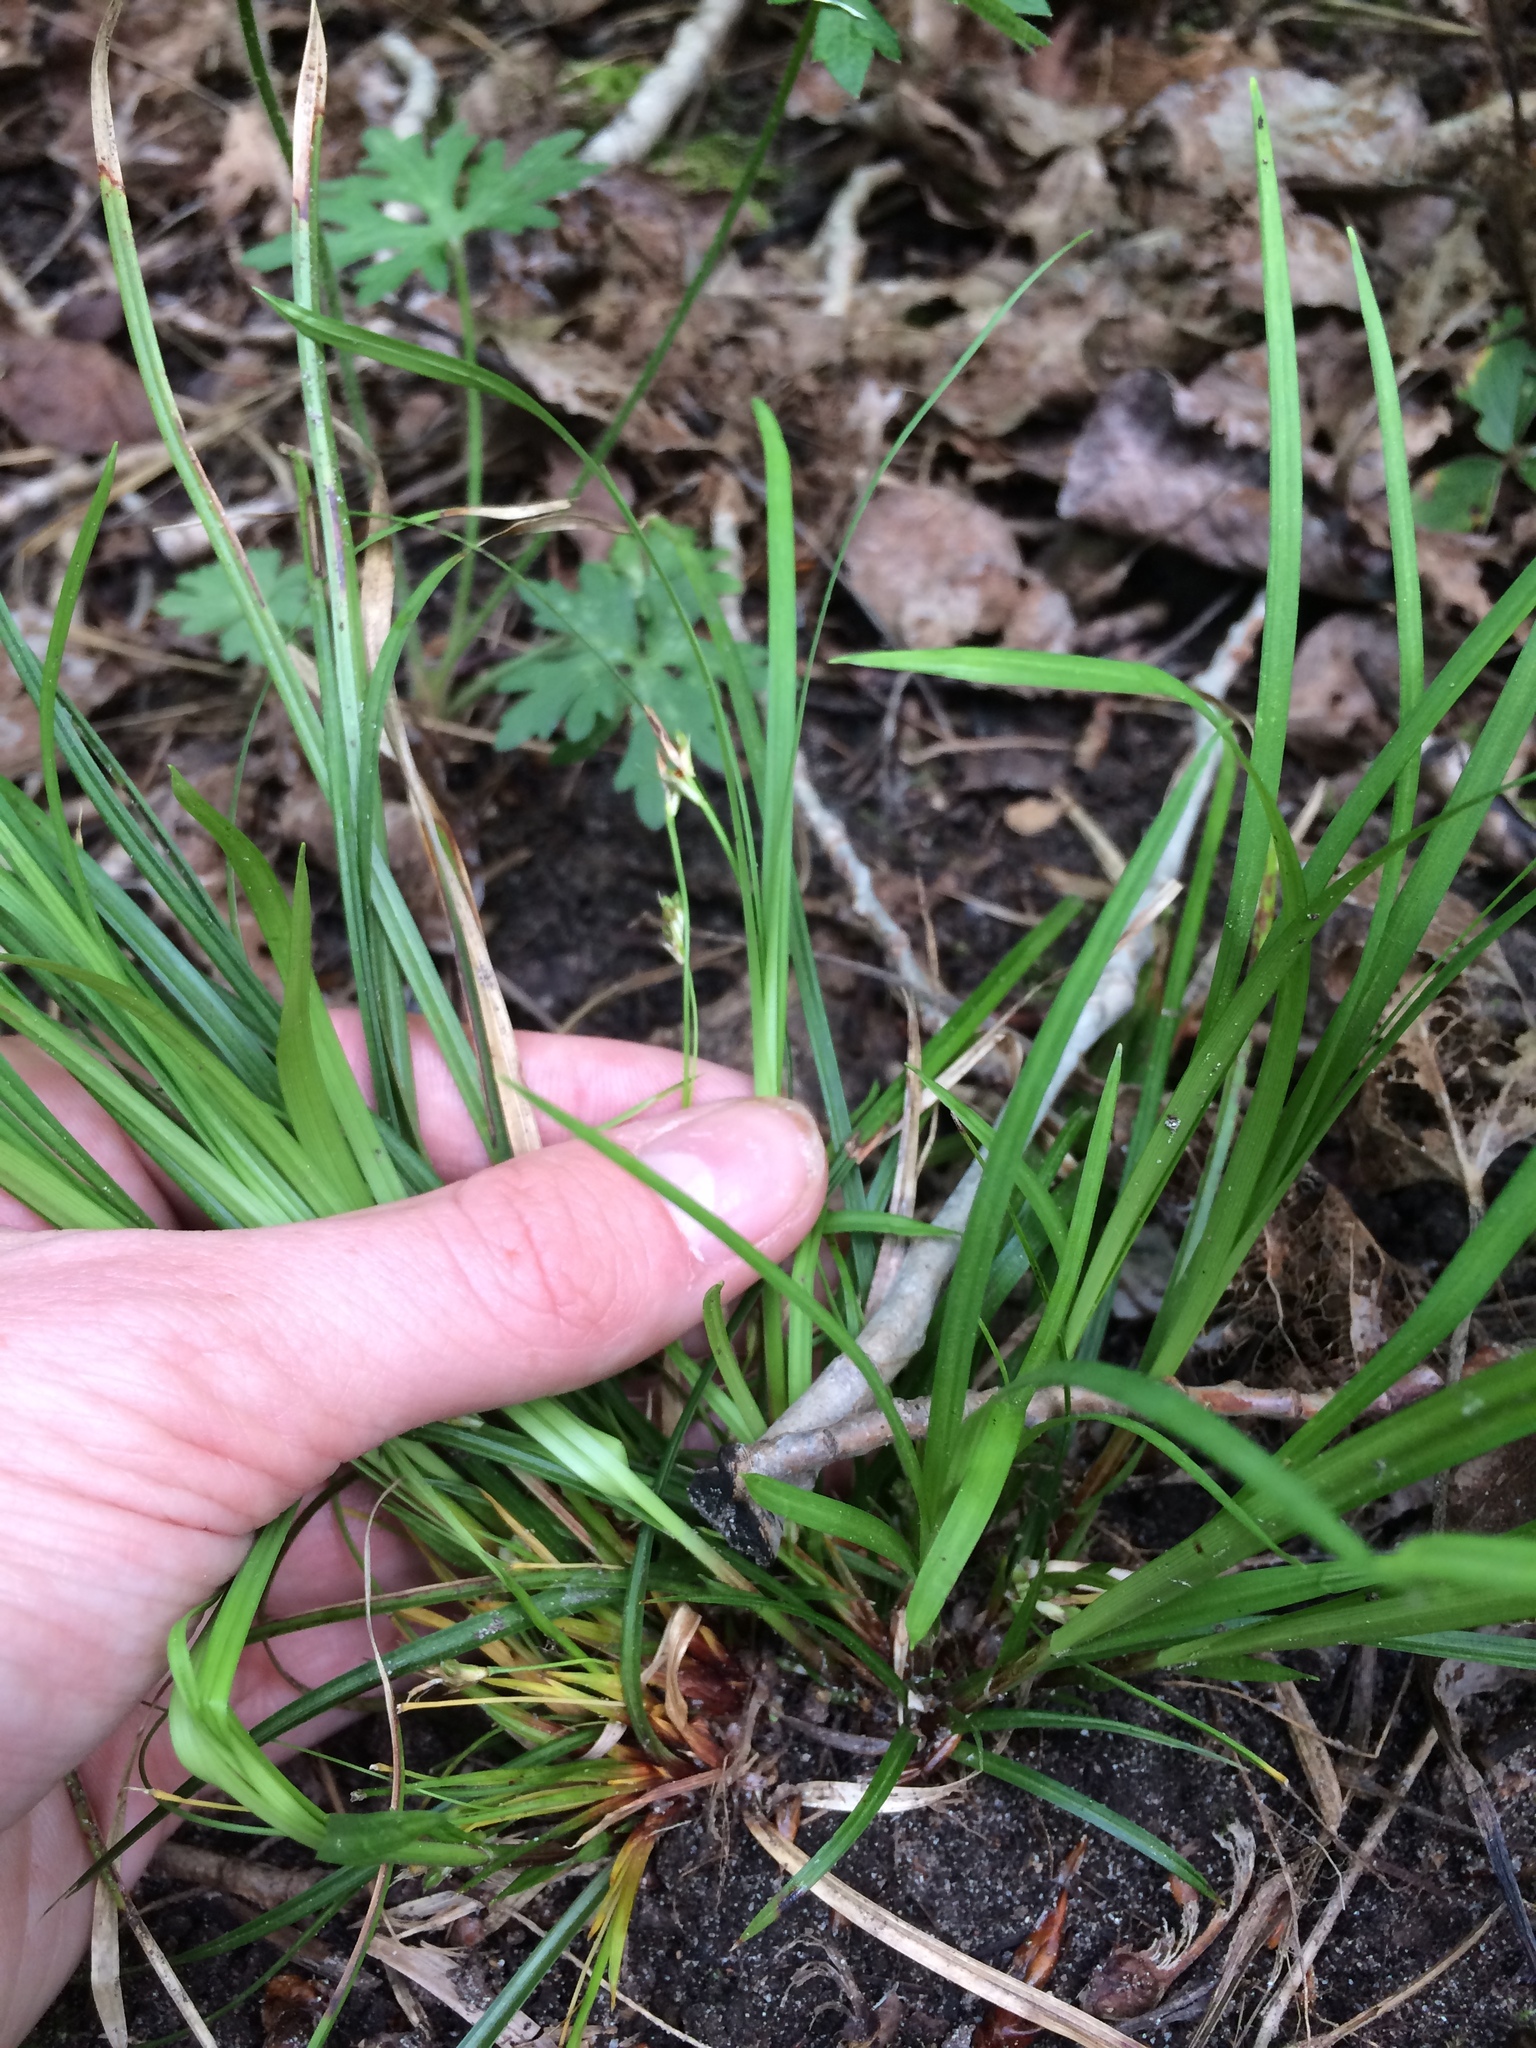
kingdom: Plantae
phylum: Tracheophyta
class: Liliopsida
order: Poales
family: Cyperaceae
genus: Carex
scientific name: Carex pedunculata
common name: Pedunculate sedge
